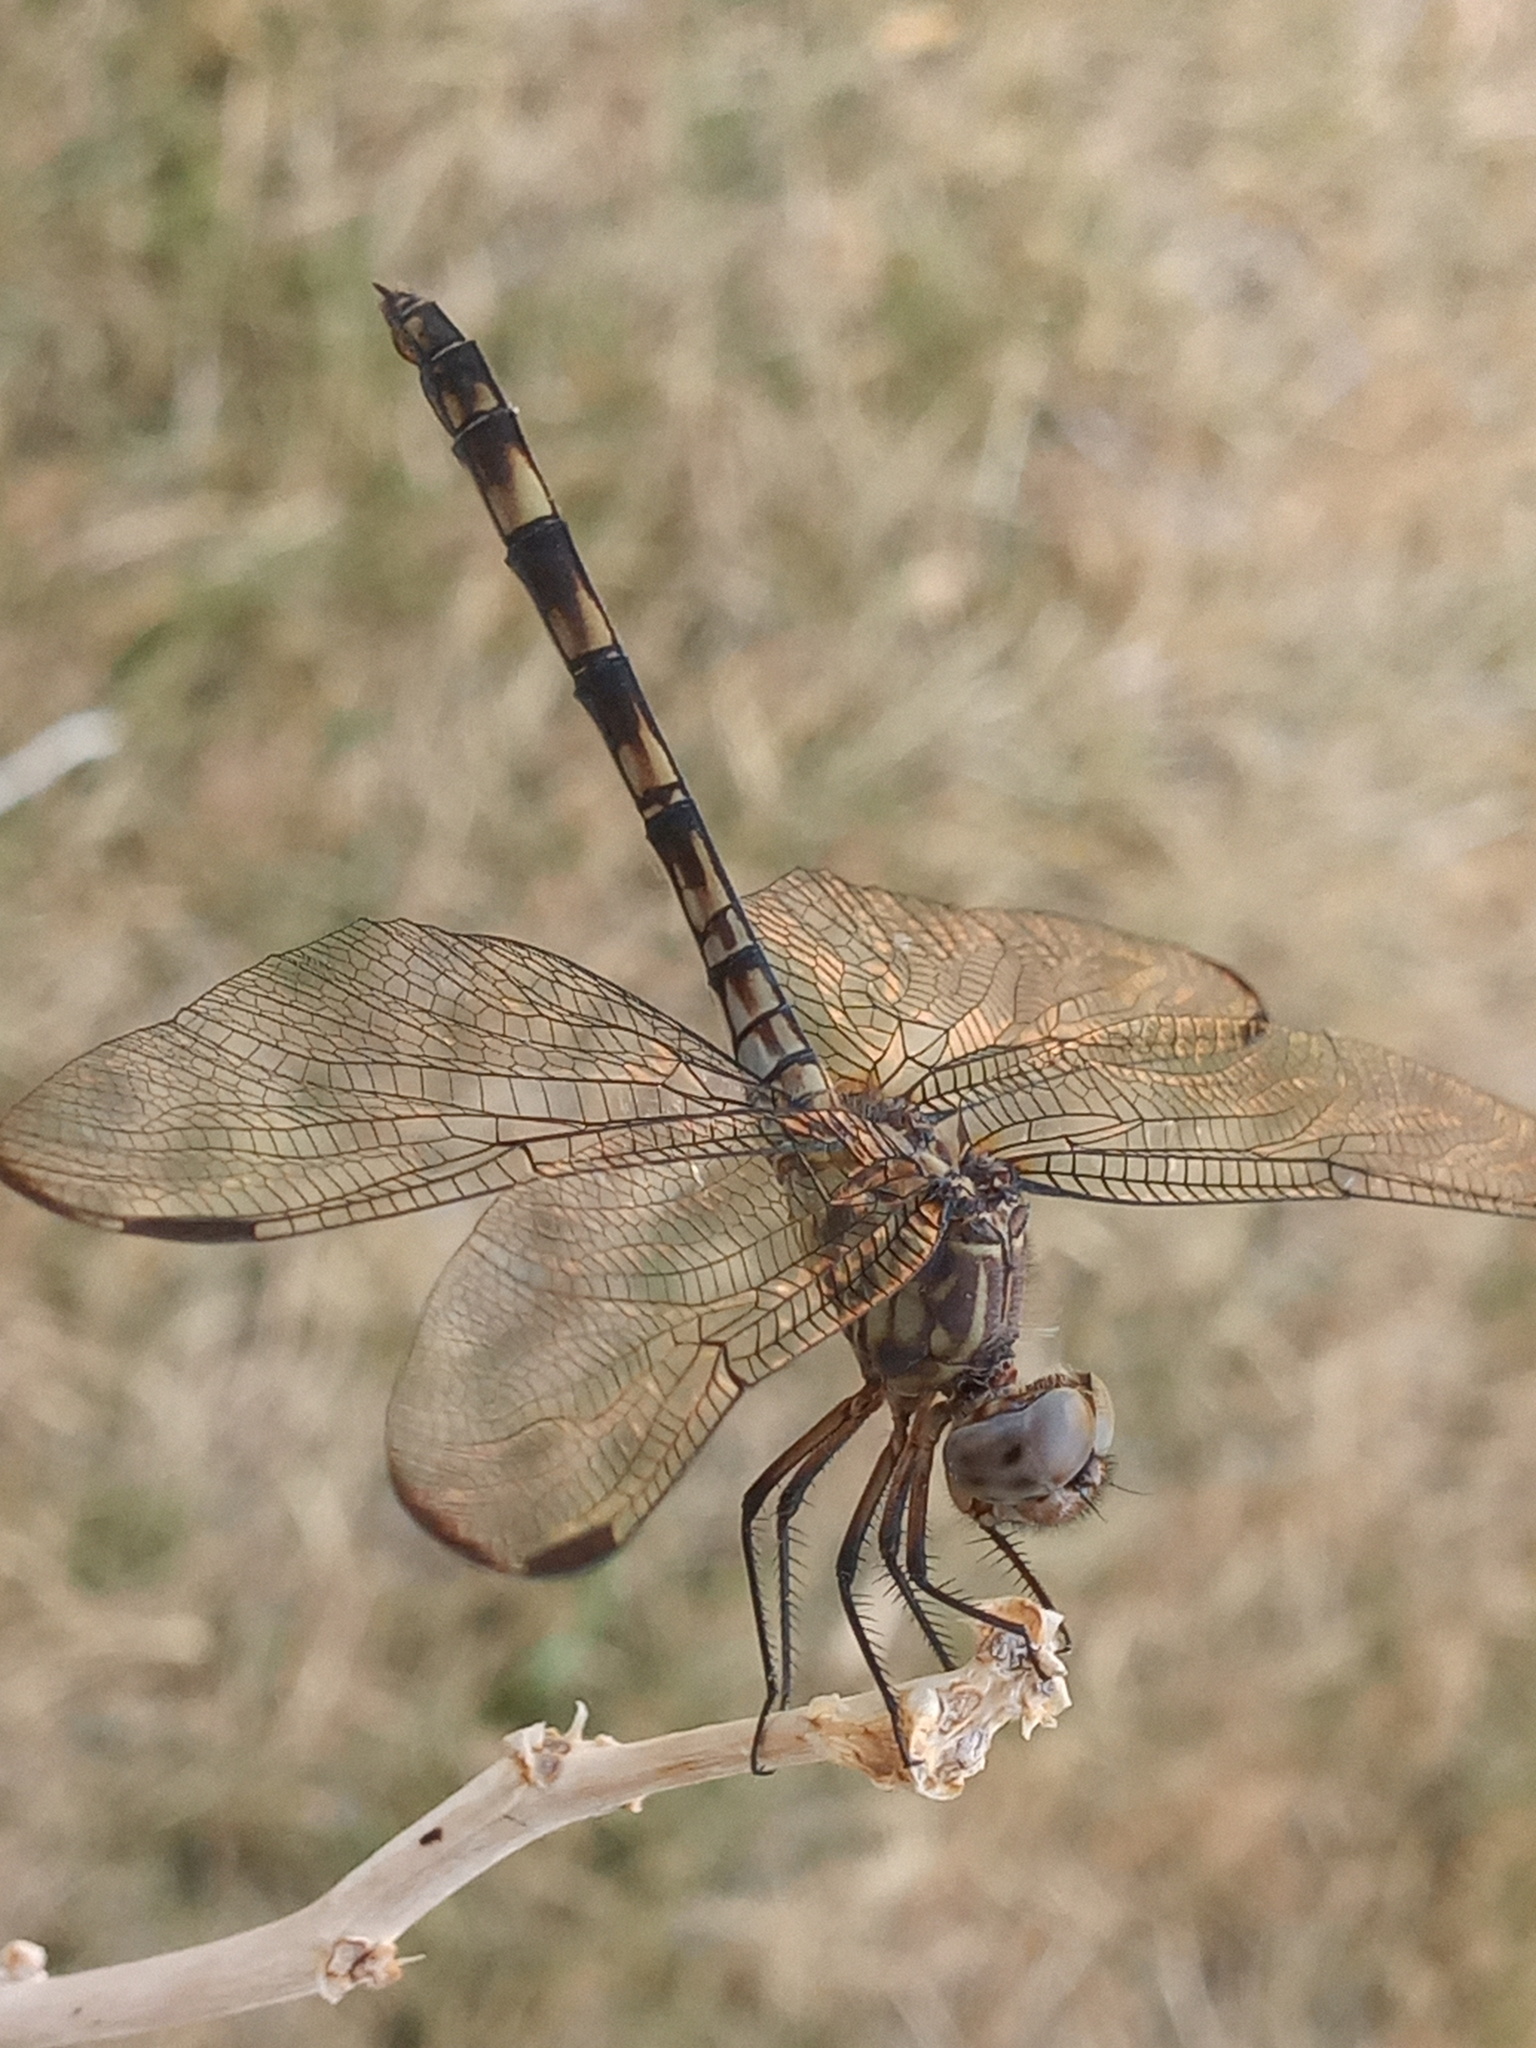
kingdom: Animalia
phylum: Arthropoda
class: Insecta
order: Odonata
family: Libellulidae
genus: Dythemis
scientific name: Dythemis nigrescens
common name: Black setwing
